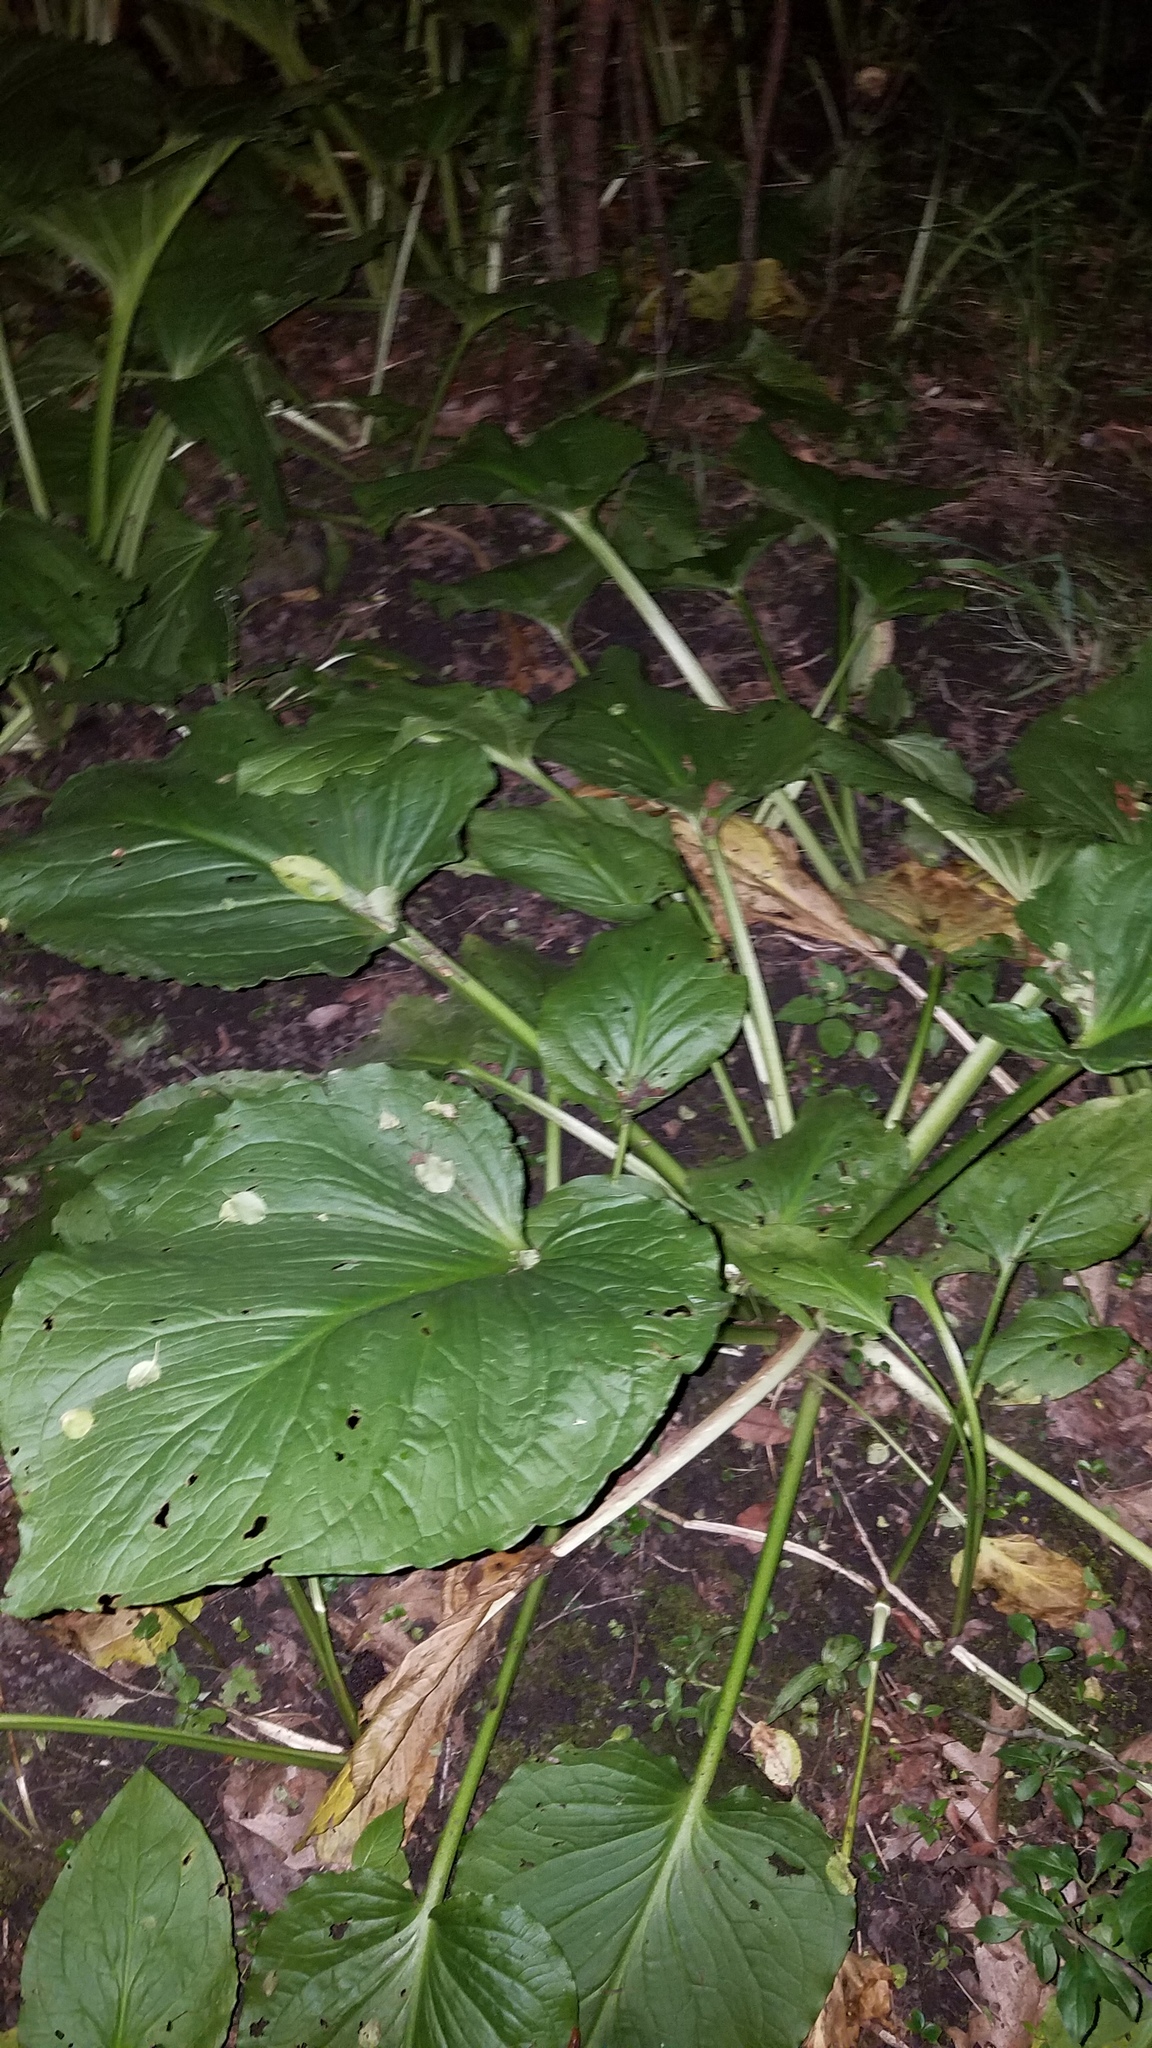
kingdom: Plantae
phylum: Tracheophyta
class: Liliopsida
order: Alismatales
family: Araceae
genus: Symplocarpus
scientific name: Symplocarpus foetidus
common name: Eastern skunk cabbage
